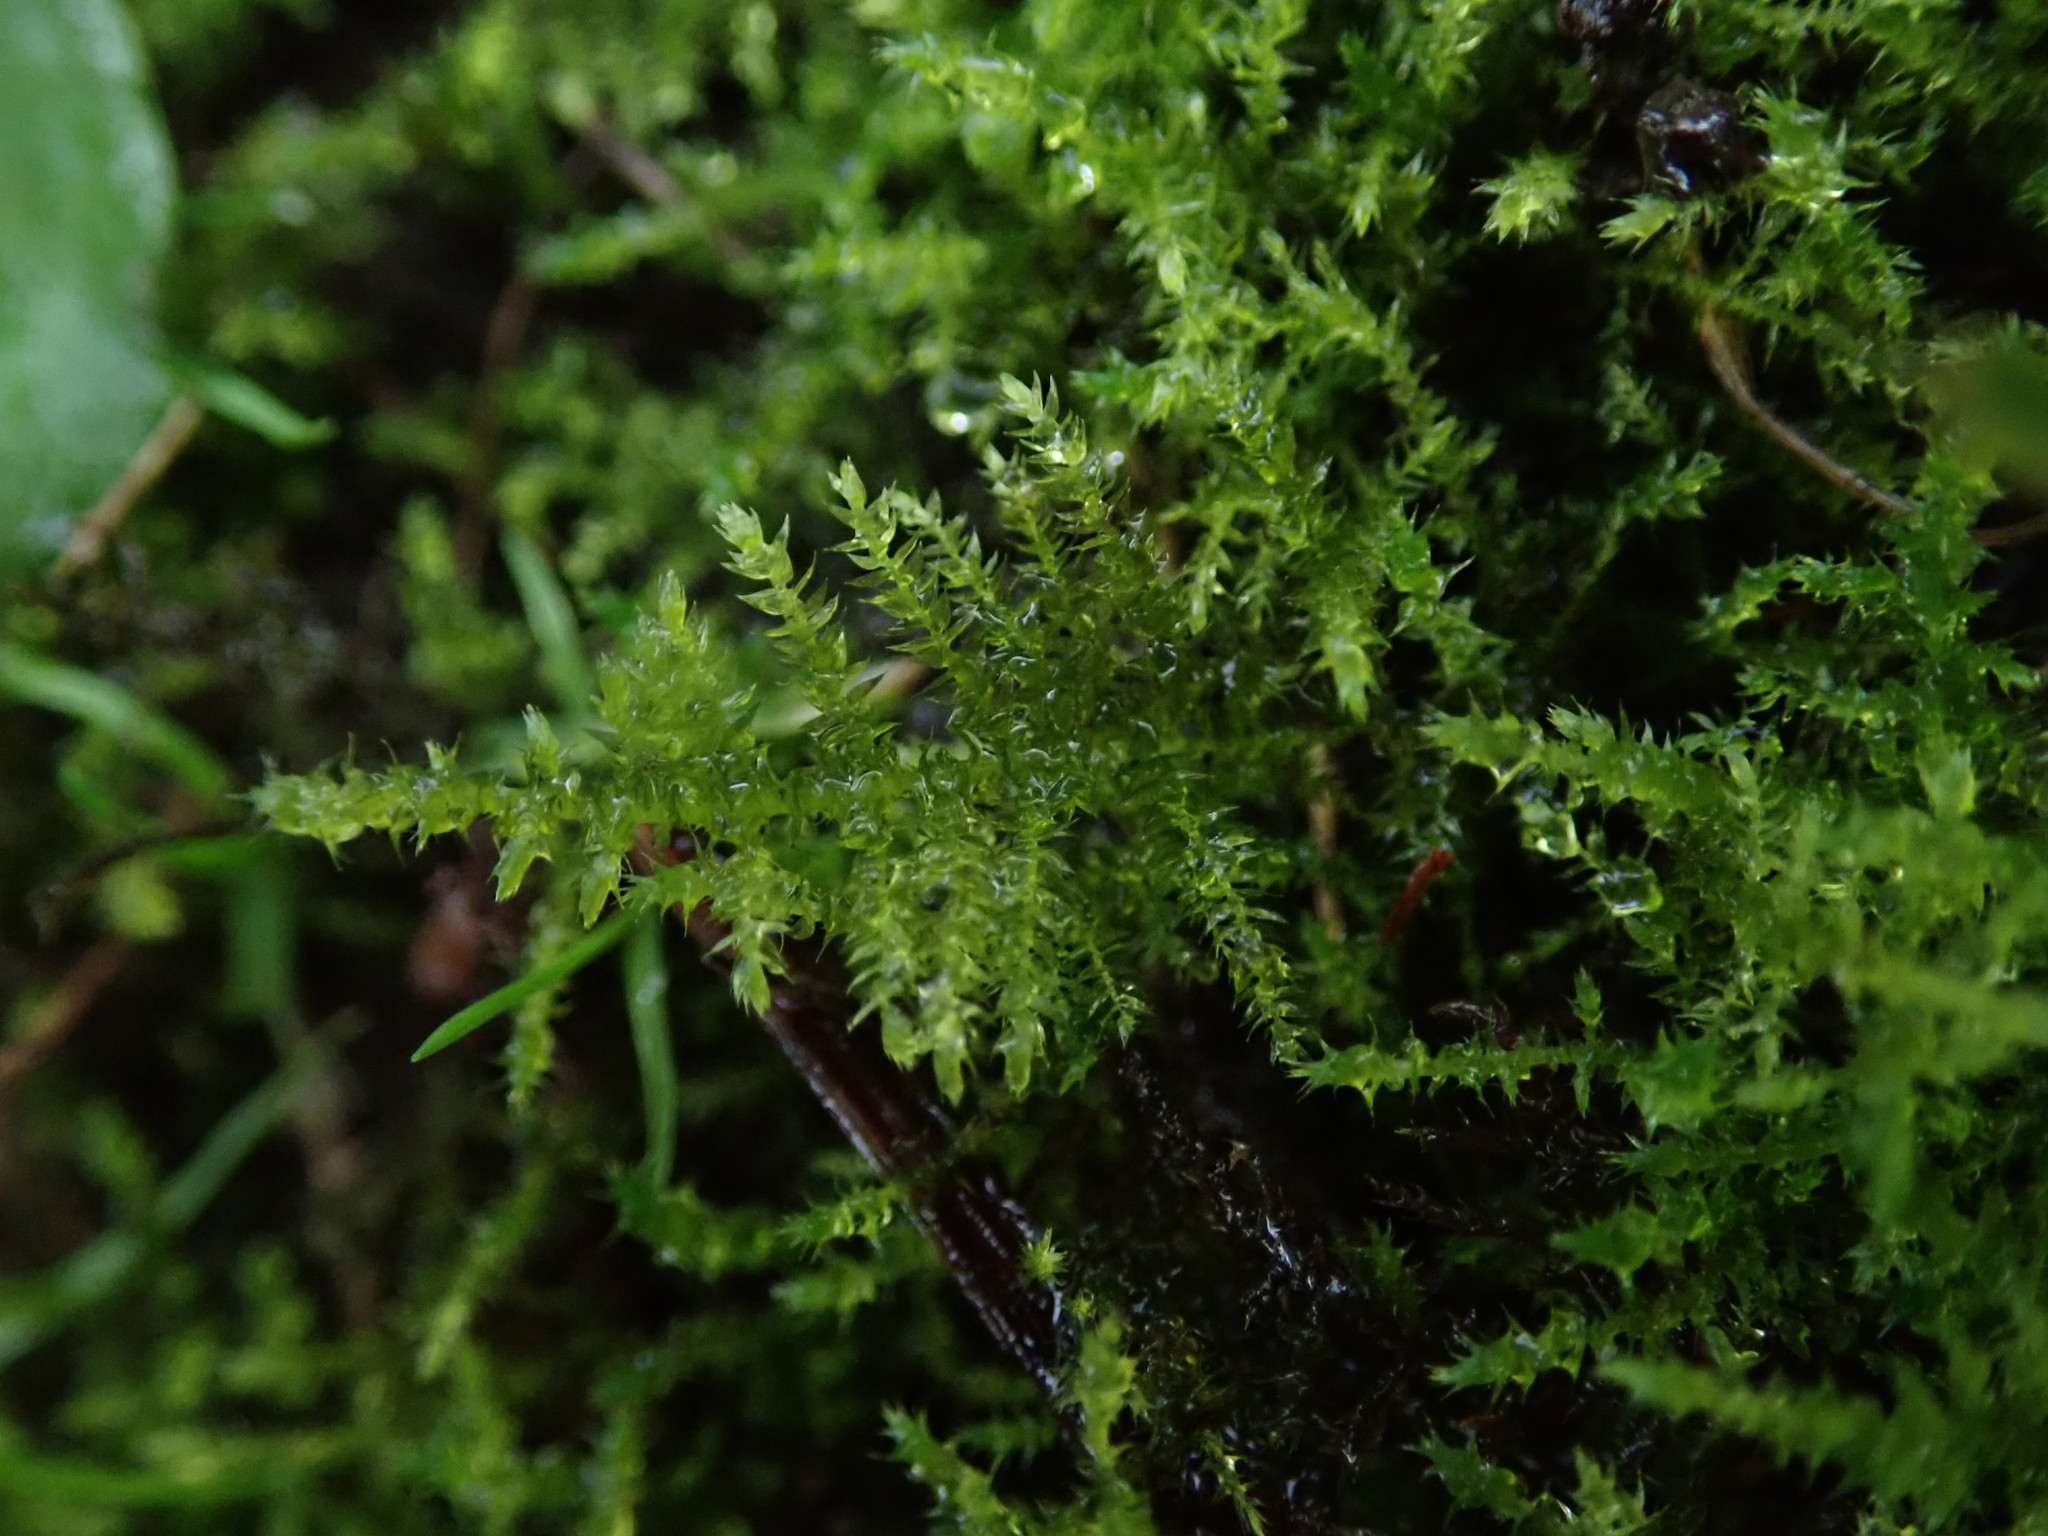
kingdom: Plantae
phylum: Bryophyta
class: Bryopsida
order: Hypnales
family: Brachytheciaceae
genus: Kindbergia
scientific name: Kindbergia praelonga
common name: Slender beaked moss
